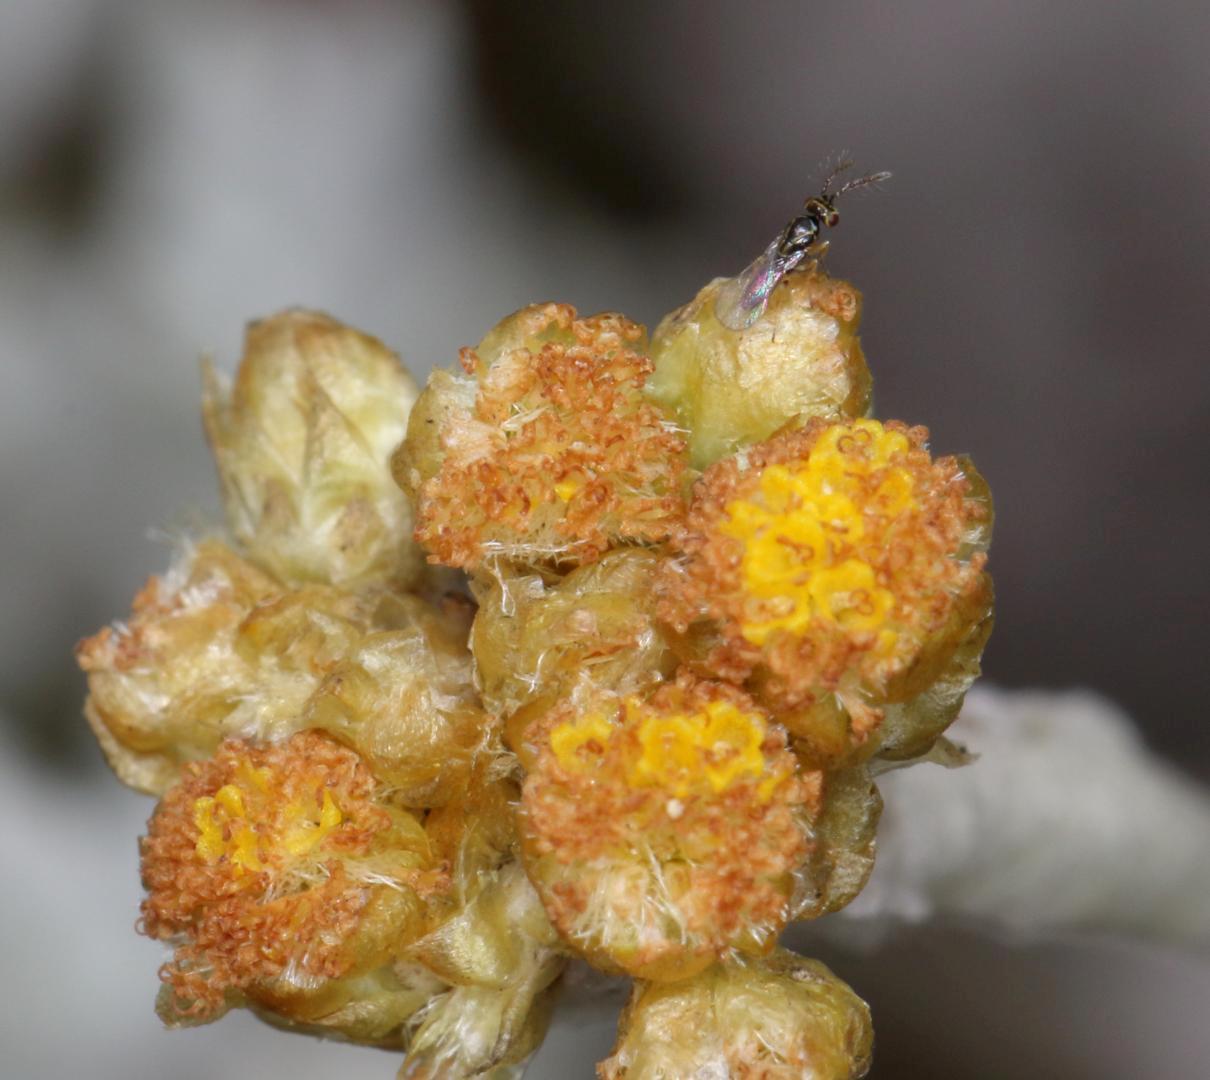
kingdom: Plantae
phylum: Tracheophyta
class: Magnoliopsida
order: Asterales
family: Asteraceae
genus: Helichrysum
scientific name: Helichrysum aureonitens
